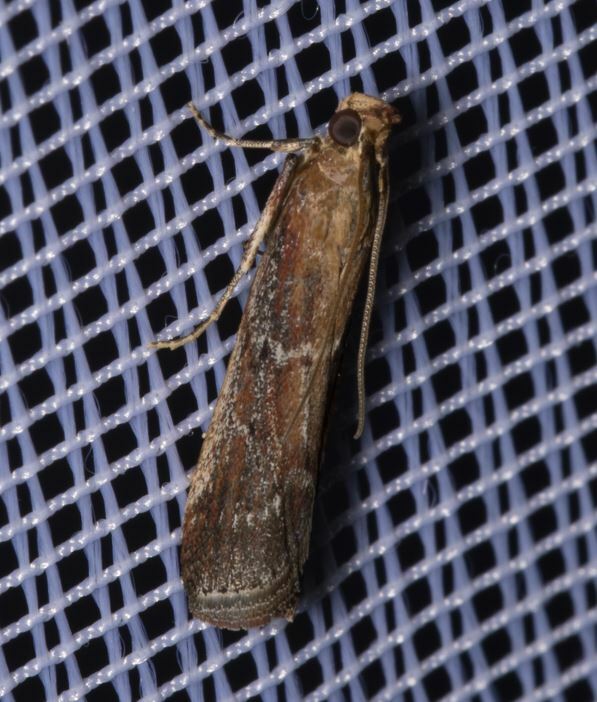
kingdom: Animalia
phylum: Arthropoda
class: Insecta
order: Lepidoptera
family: Pyralidae
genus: Uncinus
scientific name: Uncinus obductella
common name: Kent knot-horn
